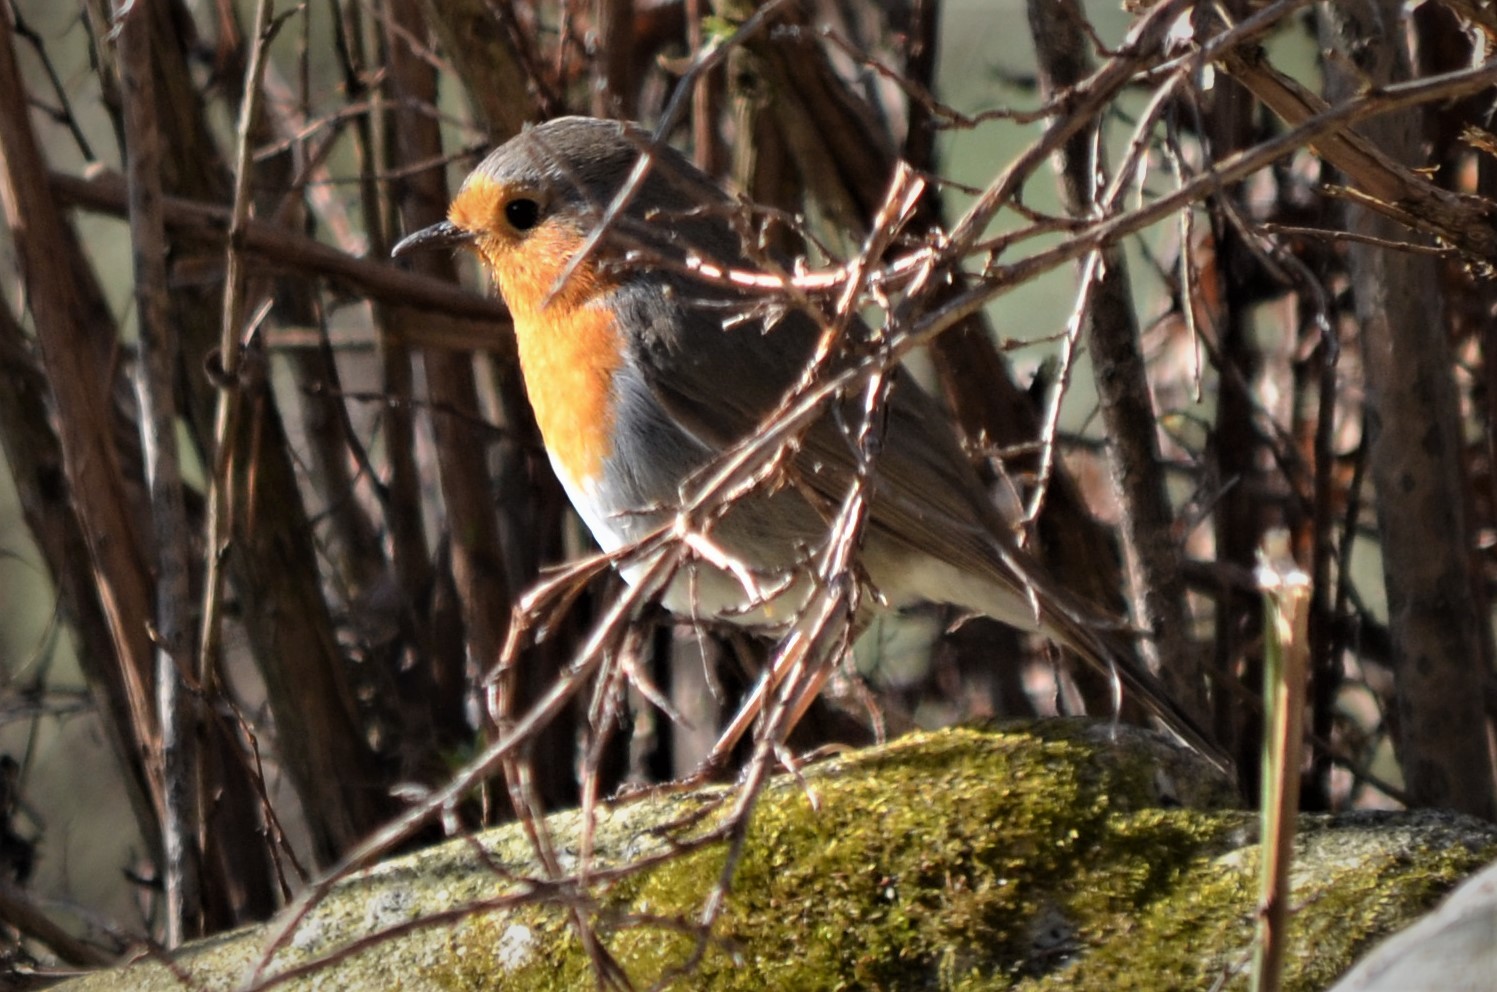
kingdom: Animalia
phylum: Chordata
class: Aves
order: Passeriformes
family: Muscicapidae
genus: Erithacus
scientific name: Erithacus rubecula
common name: European robin
